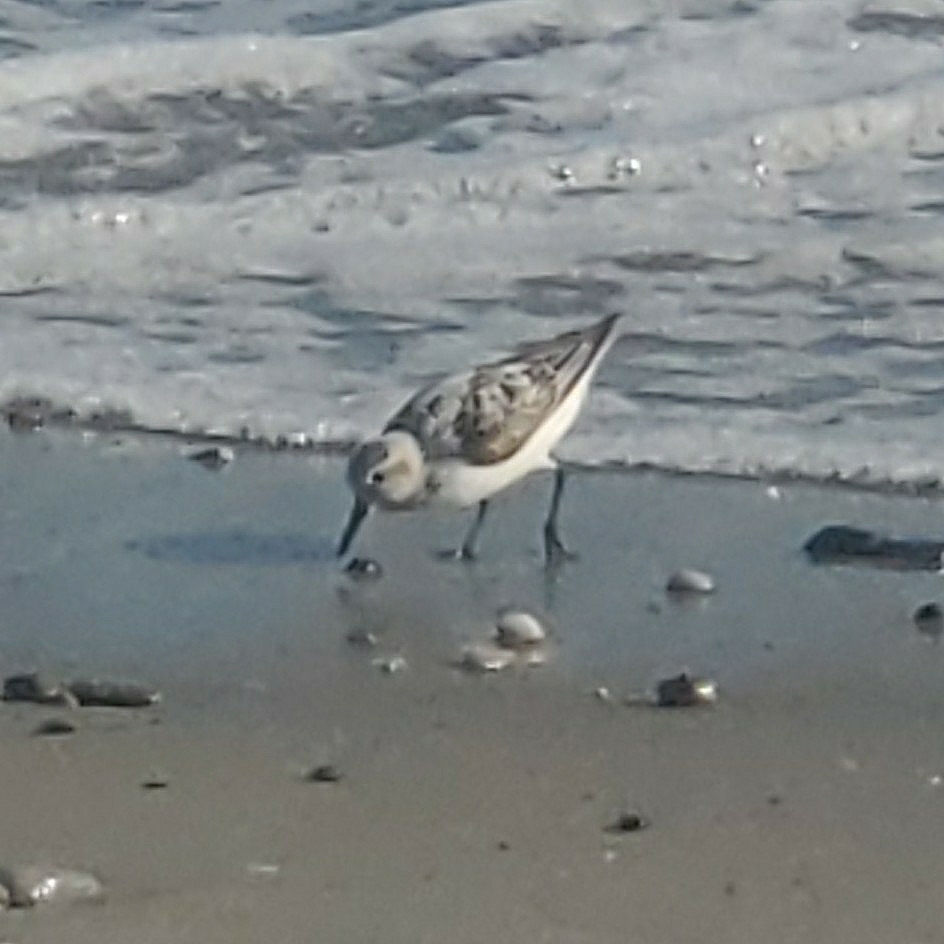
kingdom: Animalia
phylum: Chordata
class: Aves
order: Charadriiformes
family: Scolopacidae
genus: Calidris
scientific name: Calidris alba
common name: Sanderling
